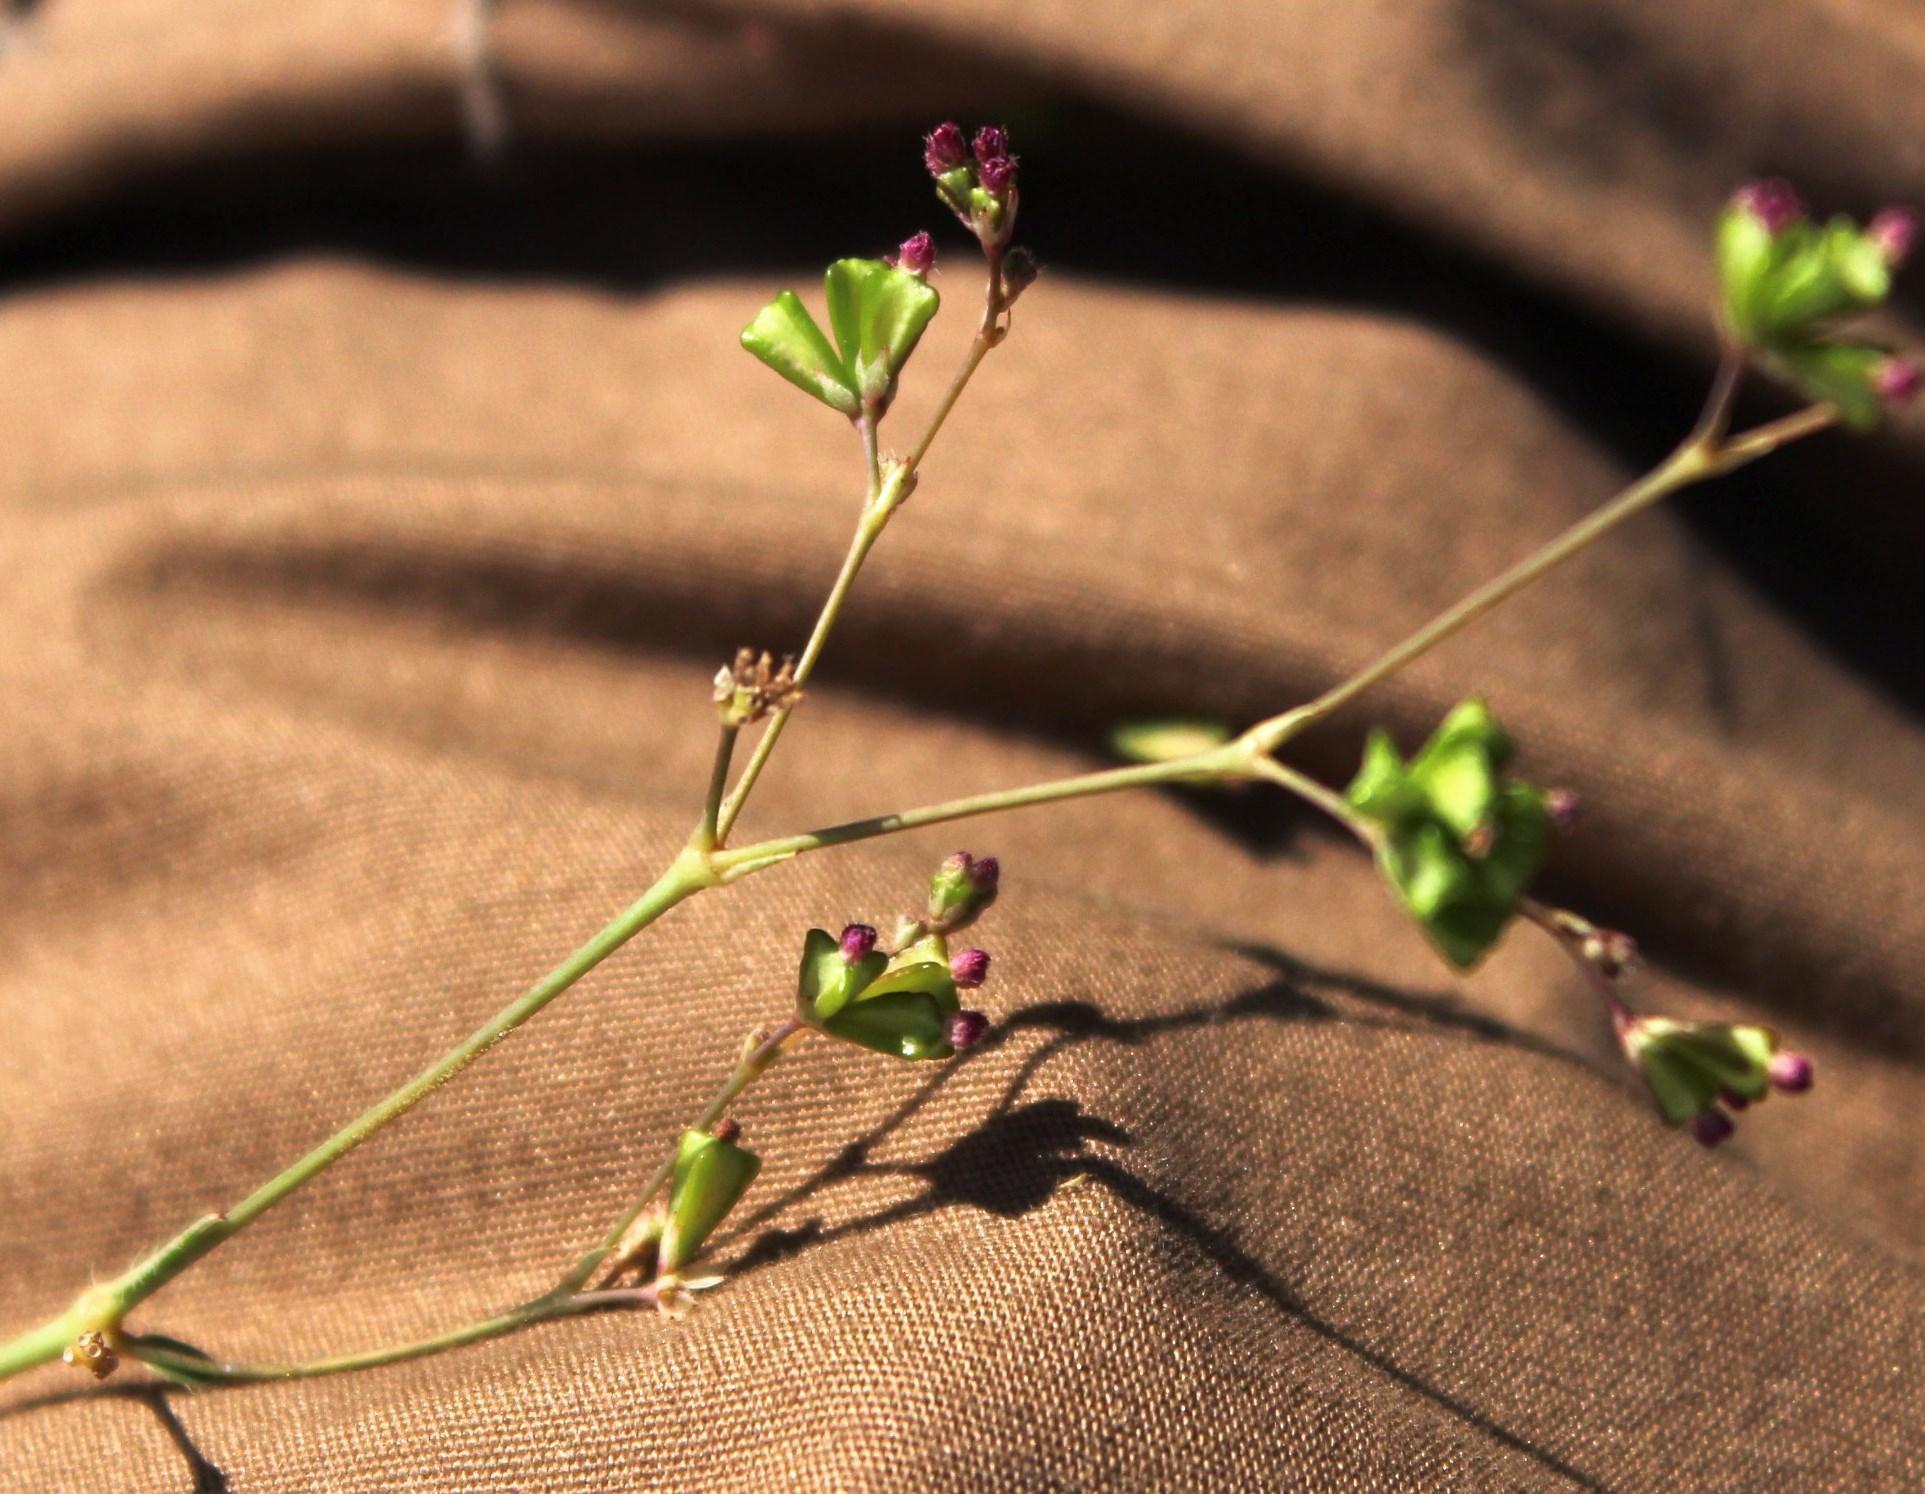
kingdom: Plantae
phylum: Tracheophyta
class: Magnoliopsida
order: Caryophyllales
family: Nyctaginaceae
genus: Boerhavia
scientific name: Boerhavia cordobensis
